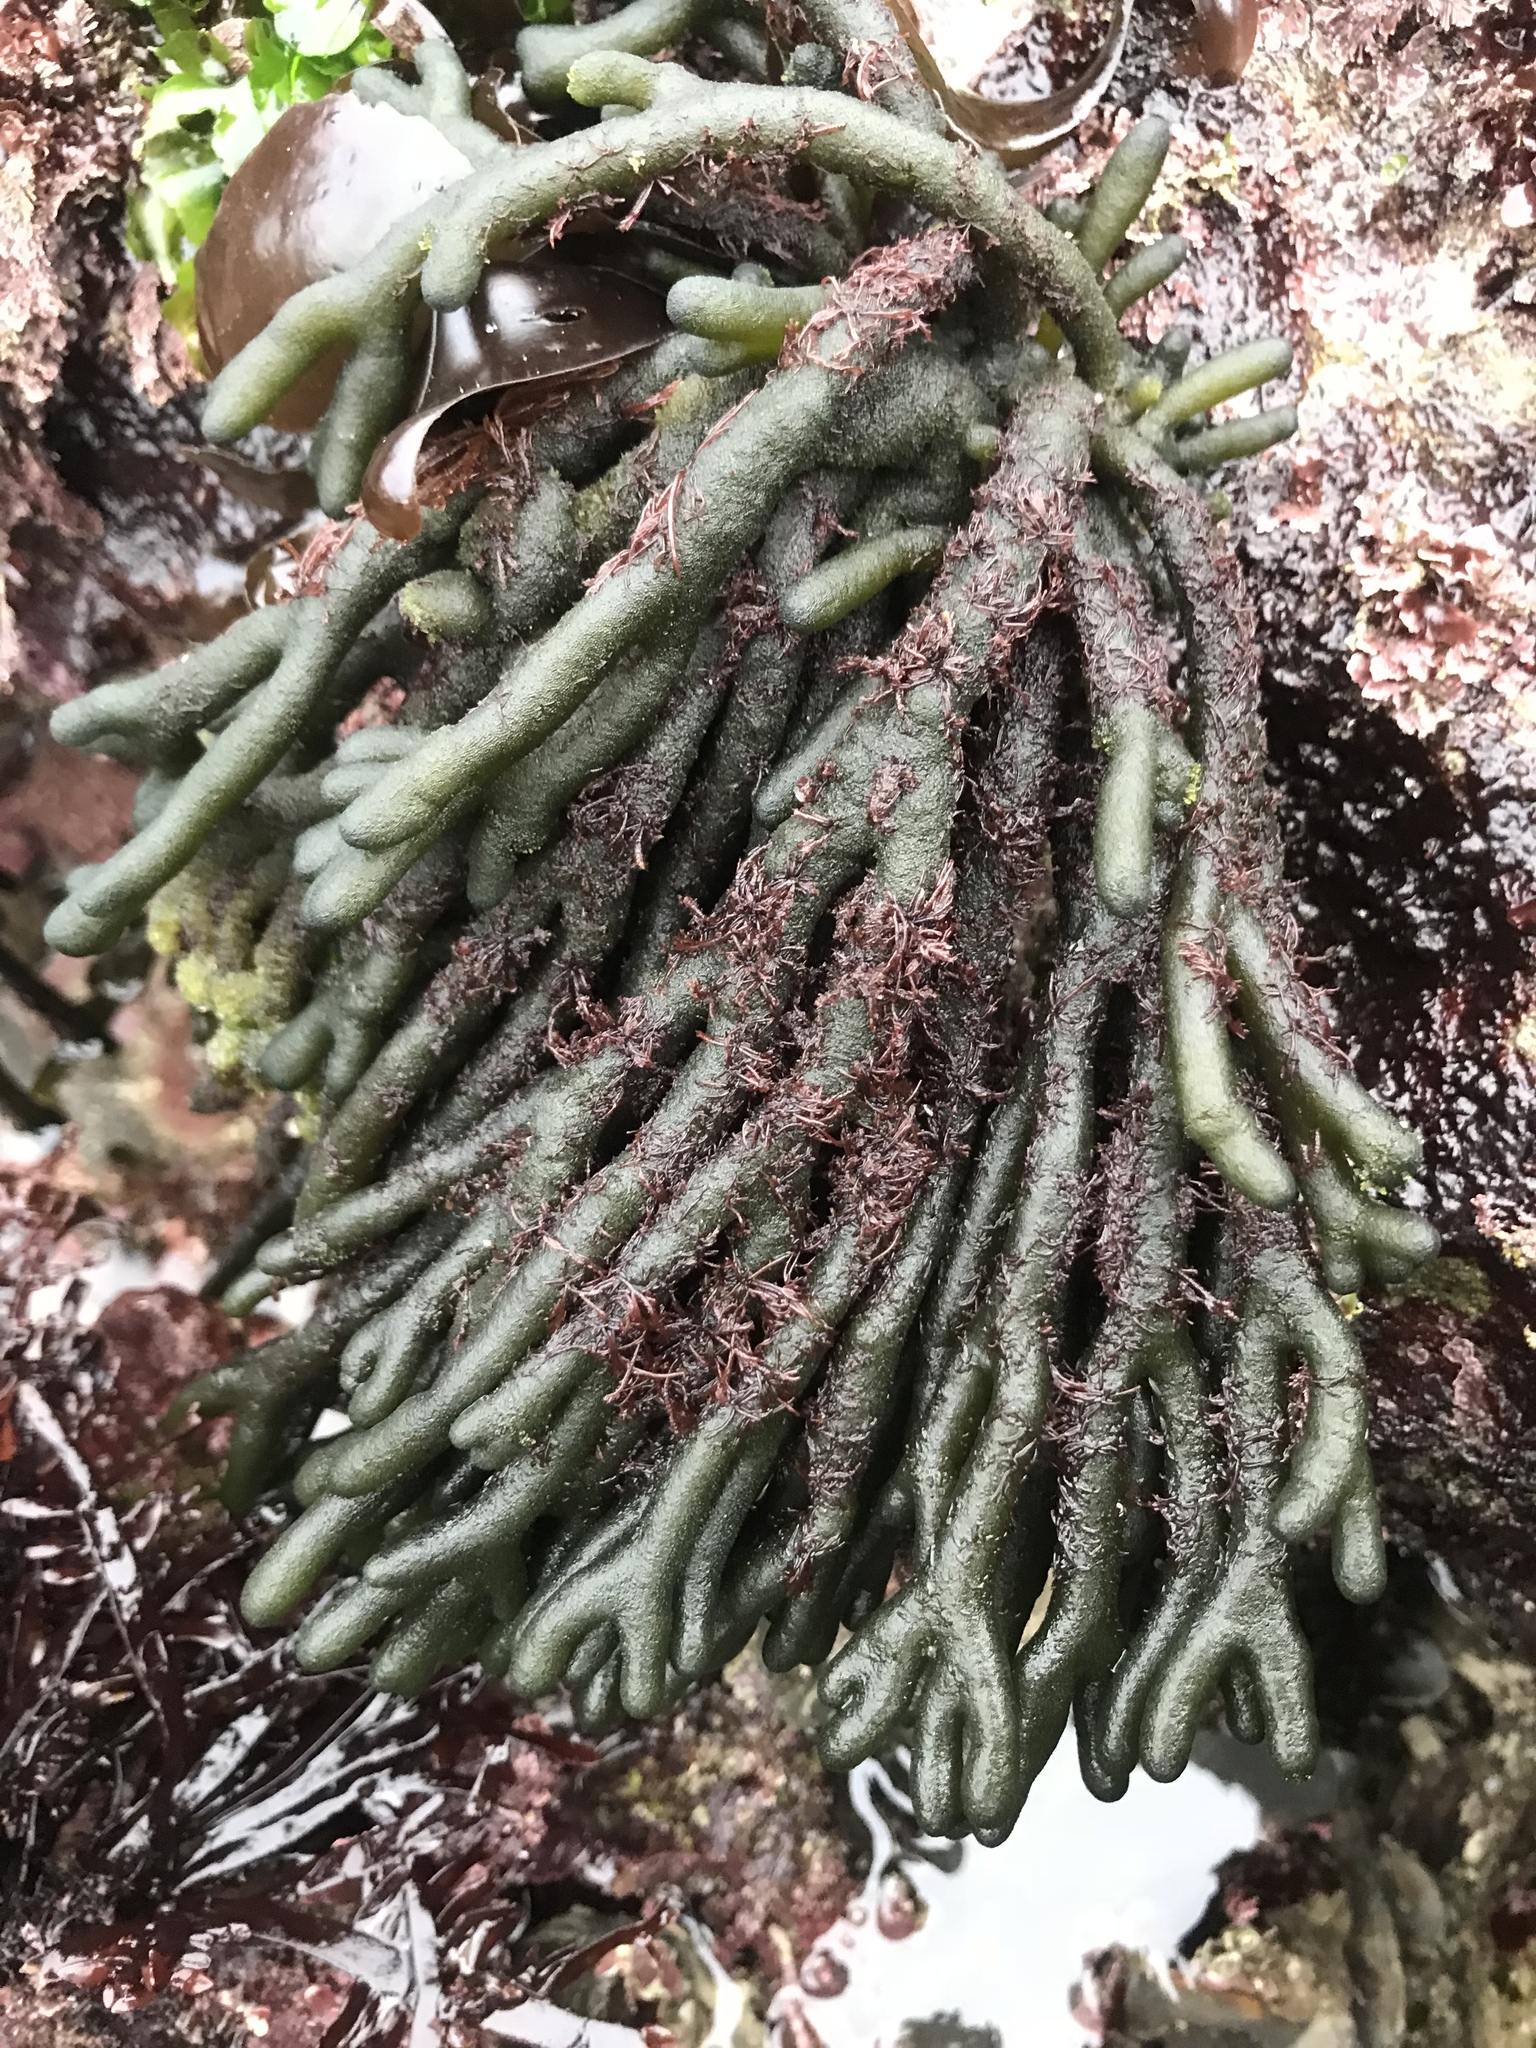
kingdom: Plantae
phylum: Chlorophyta
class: Ulvophyceae
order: Bryopsidales
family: Codiaceae
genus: Codium
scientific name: Codium fragile
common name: Dead man's fingers
